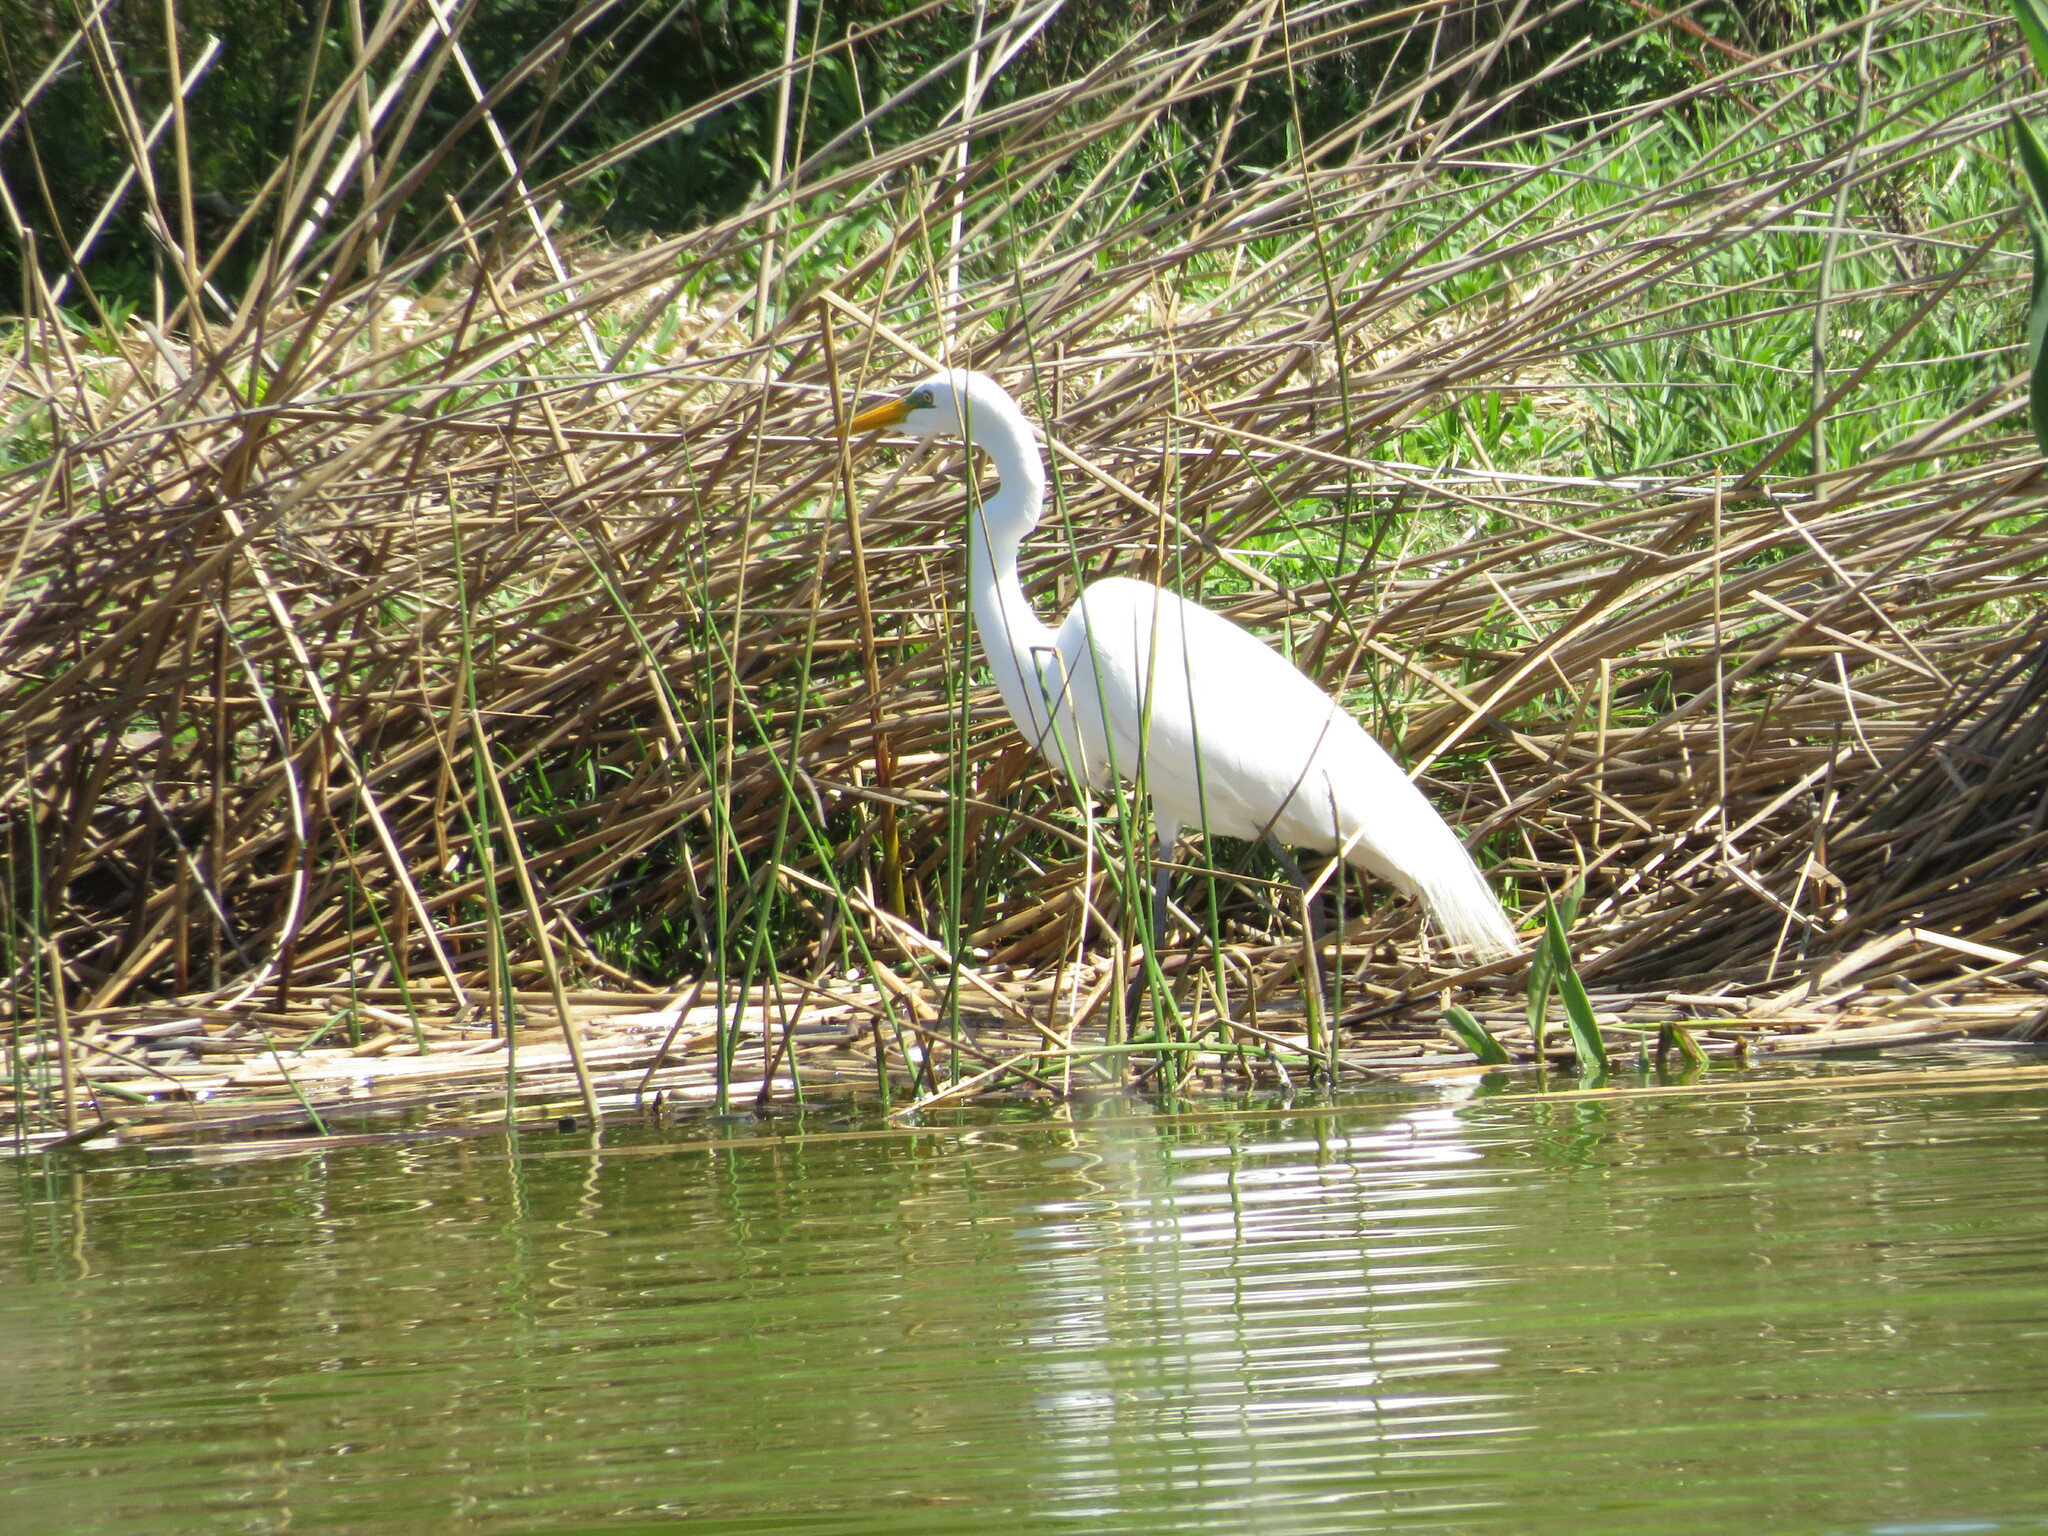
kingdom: Animalia
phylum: Chordata
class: Aves
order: Pelecaniformes
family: Ardeidae
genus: Ardea
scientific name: Ardea alba
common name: Great egret
